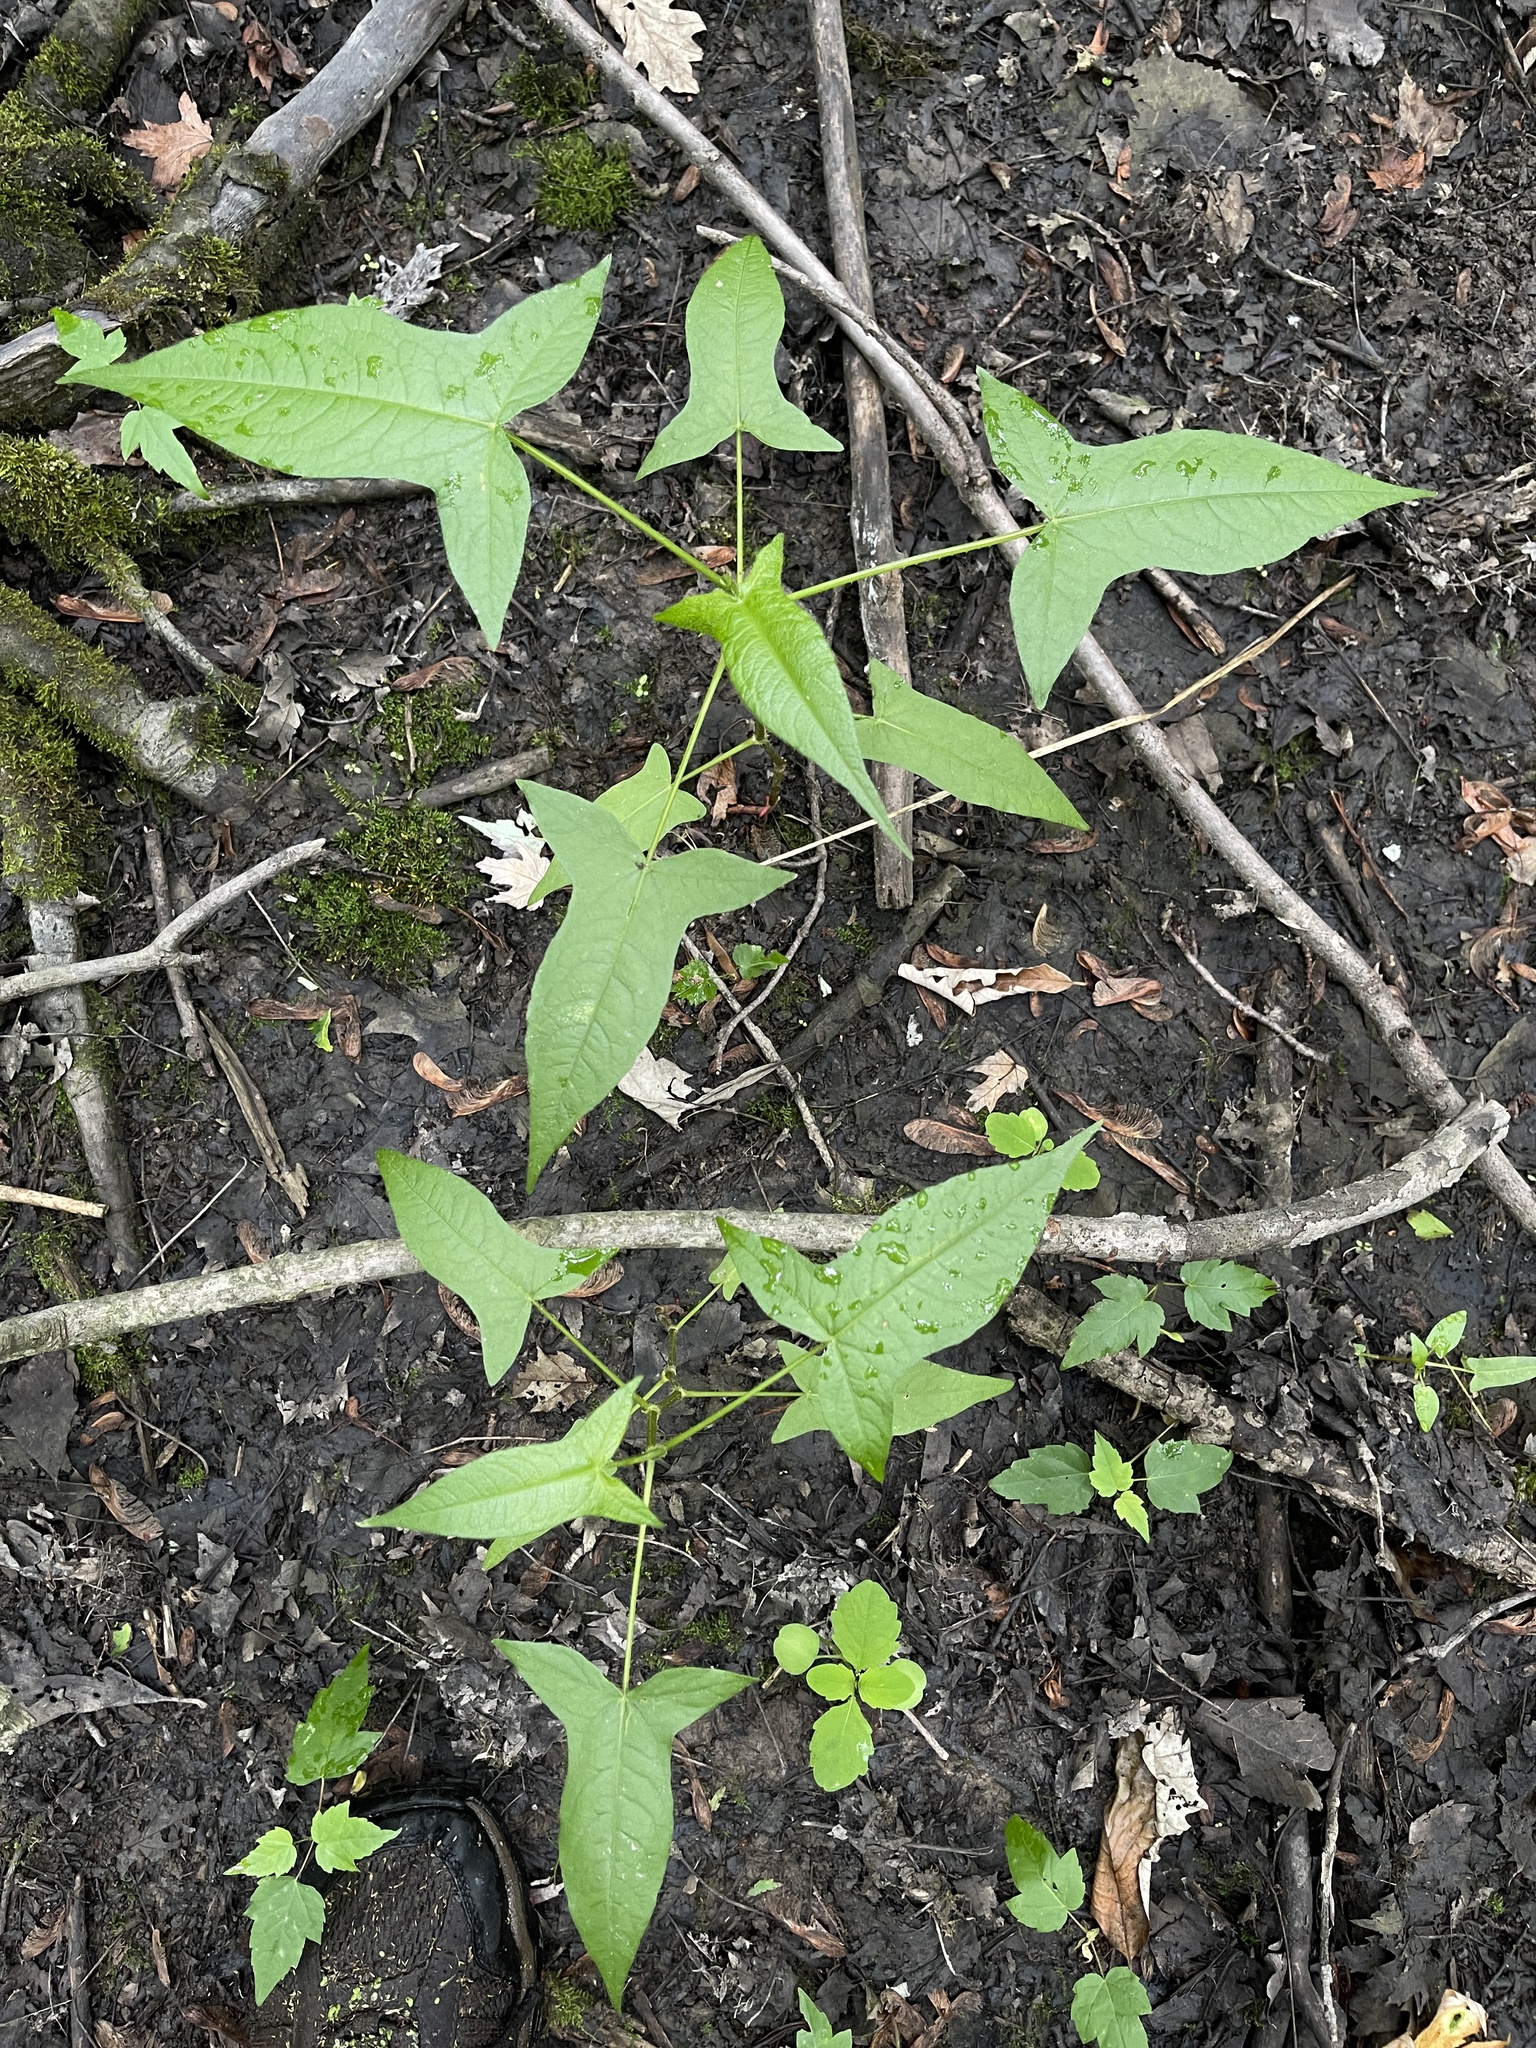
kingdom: Plantae
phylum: Tracheophyta
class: Magnoliopsida
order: Caryophyllales
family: Polygonaceae
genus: Persicaria
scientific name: Persicaria arifolia
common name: Halberd-leaved tear-thumb
